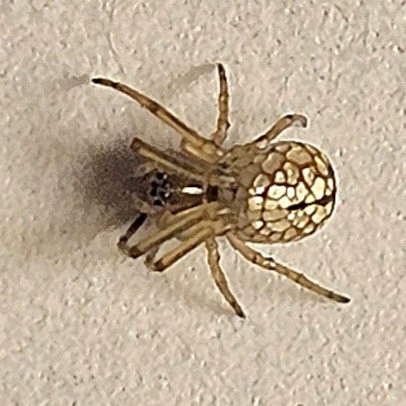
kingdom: Animalia
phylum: Arthropoda
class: Arachnida
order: Araneae
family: Tetragnathidae
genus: Leucauge
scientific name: Leucauge venusta
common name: Longjawed orb weavers
